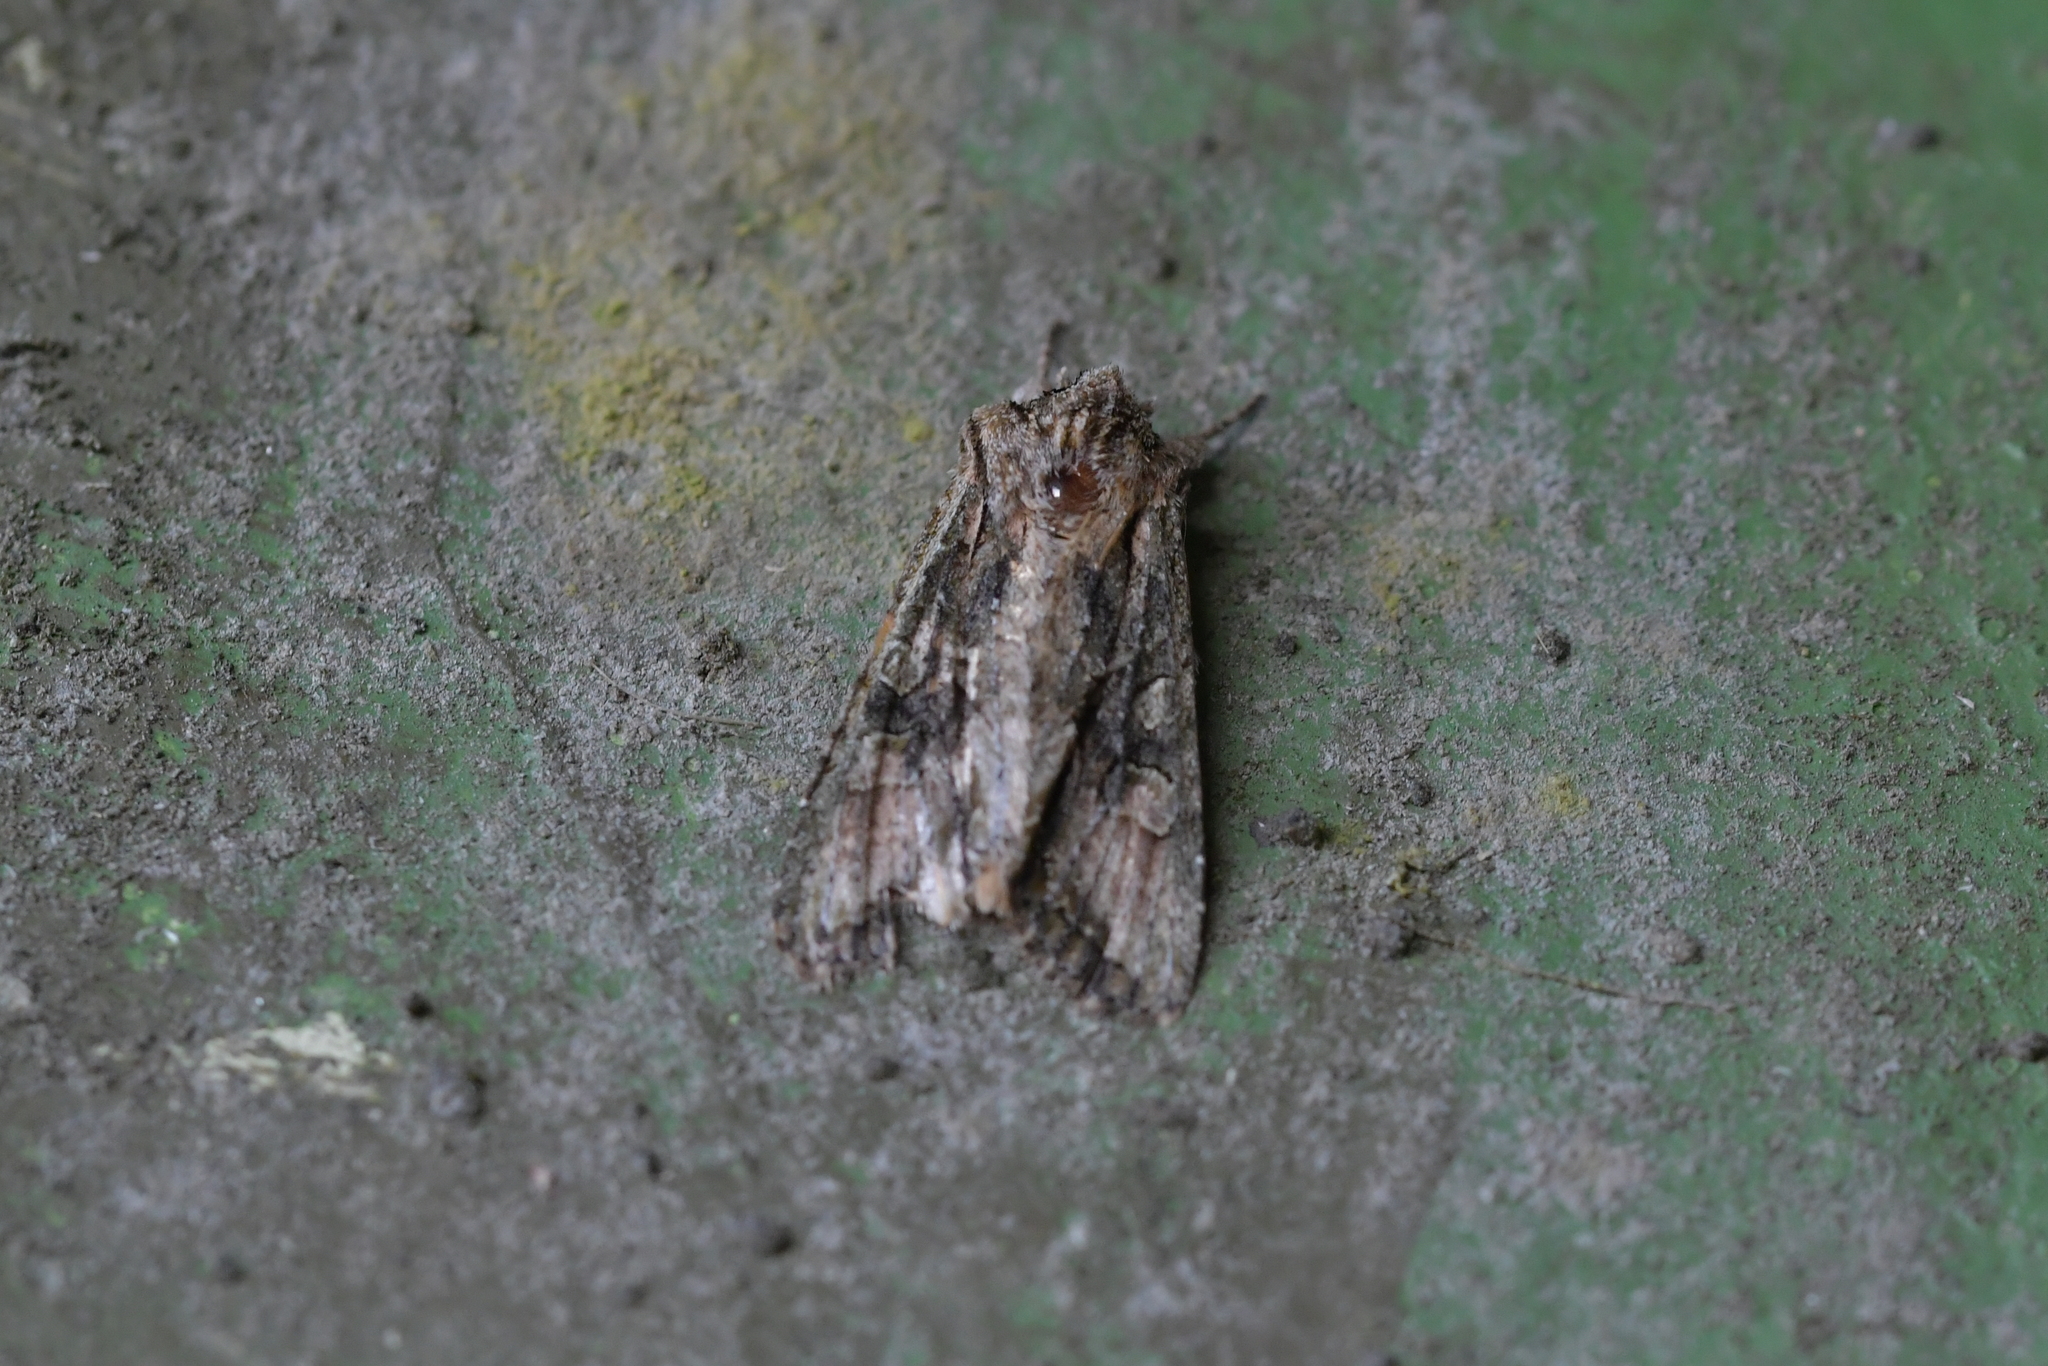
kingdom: Animalia
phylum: Arthropoda
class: Insecta
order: Lepidoptera
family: Noctuidae
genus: Ichneutica
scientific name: Ichneutica mutans
